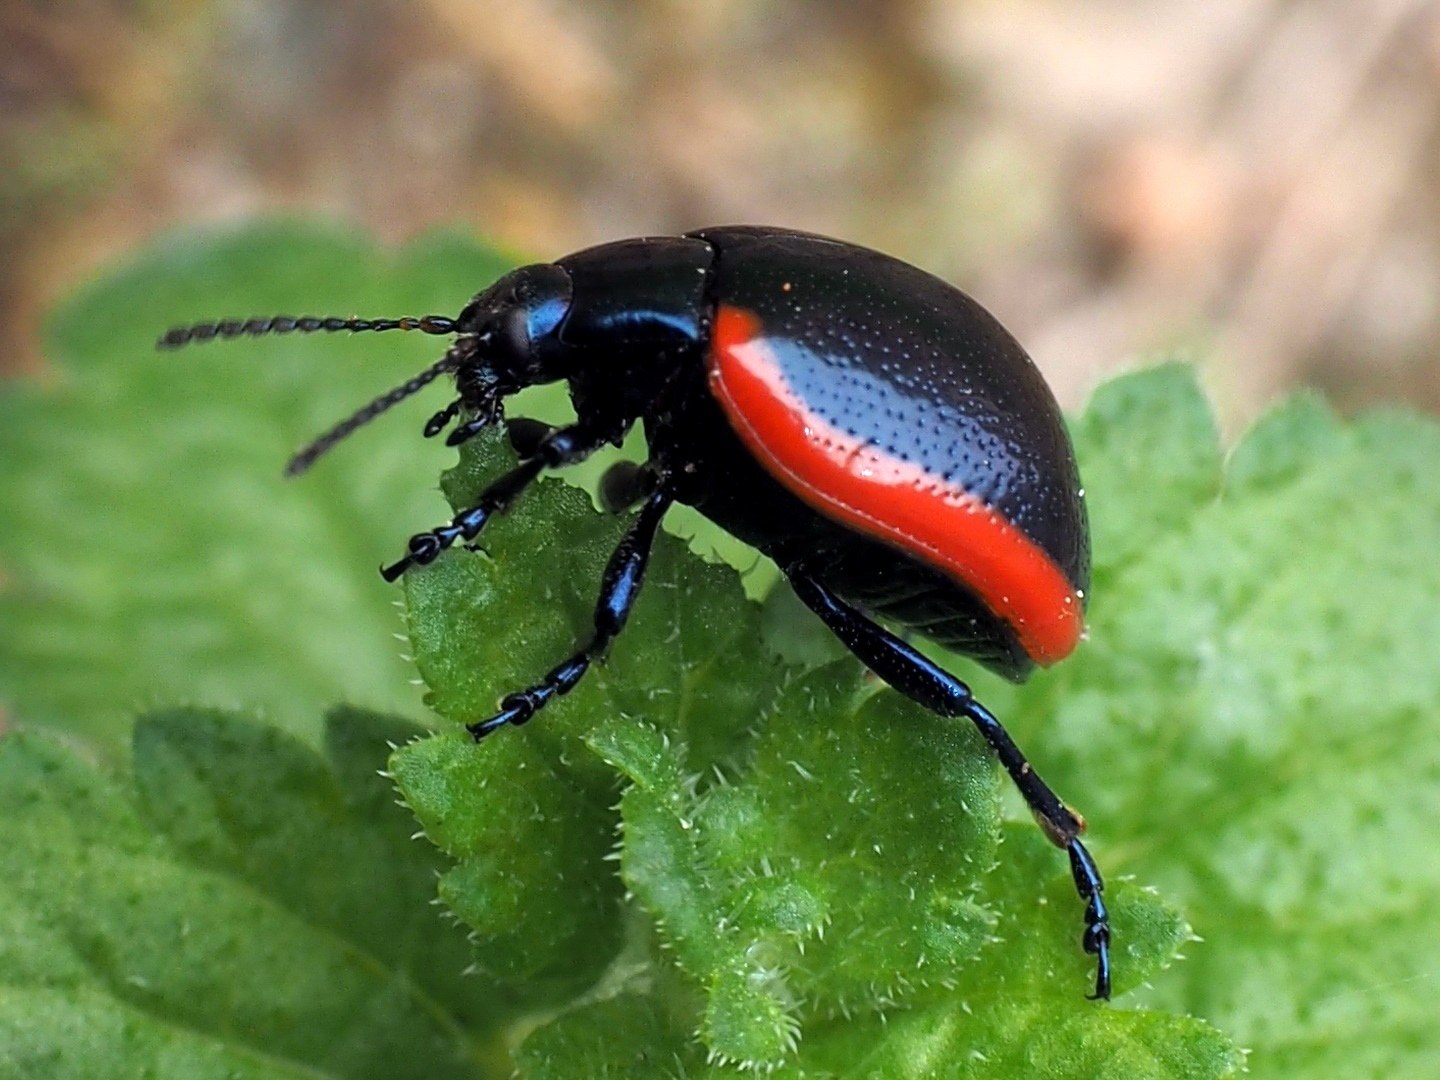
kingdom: Animalia
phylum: Arthropoda
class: Insecta
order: Coleoptera
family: Chrysomelidae
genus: Chrysolina
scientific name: Chrysolina rossia
